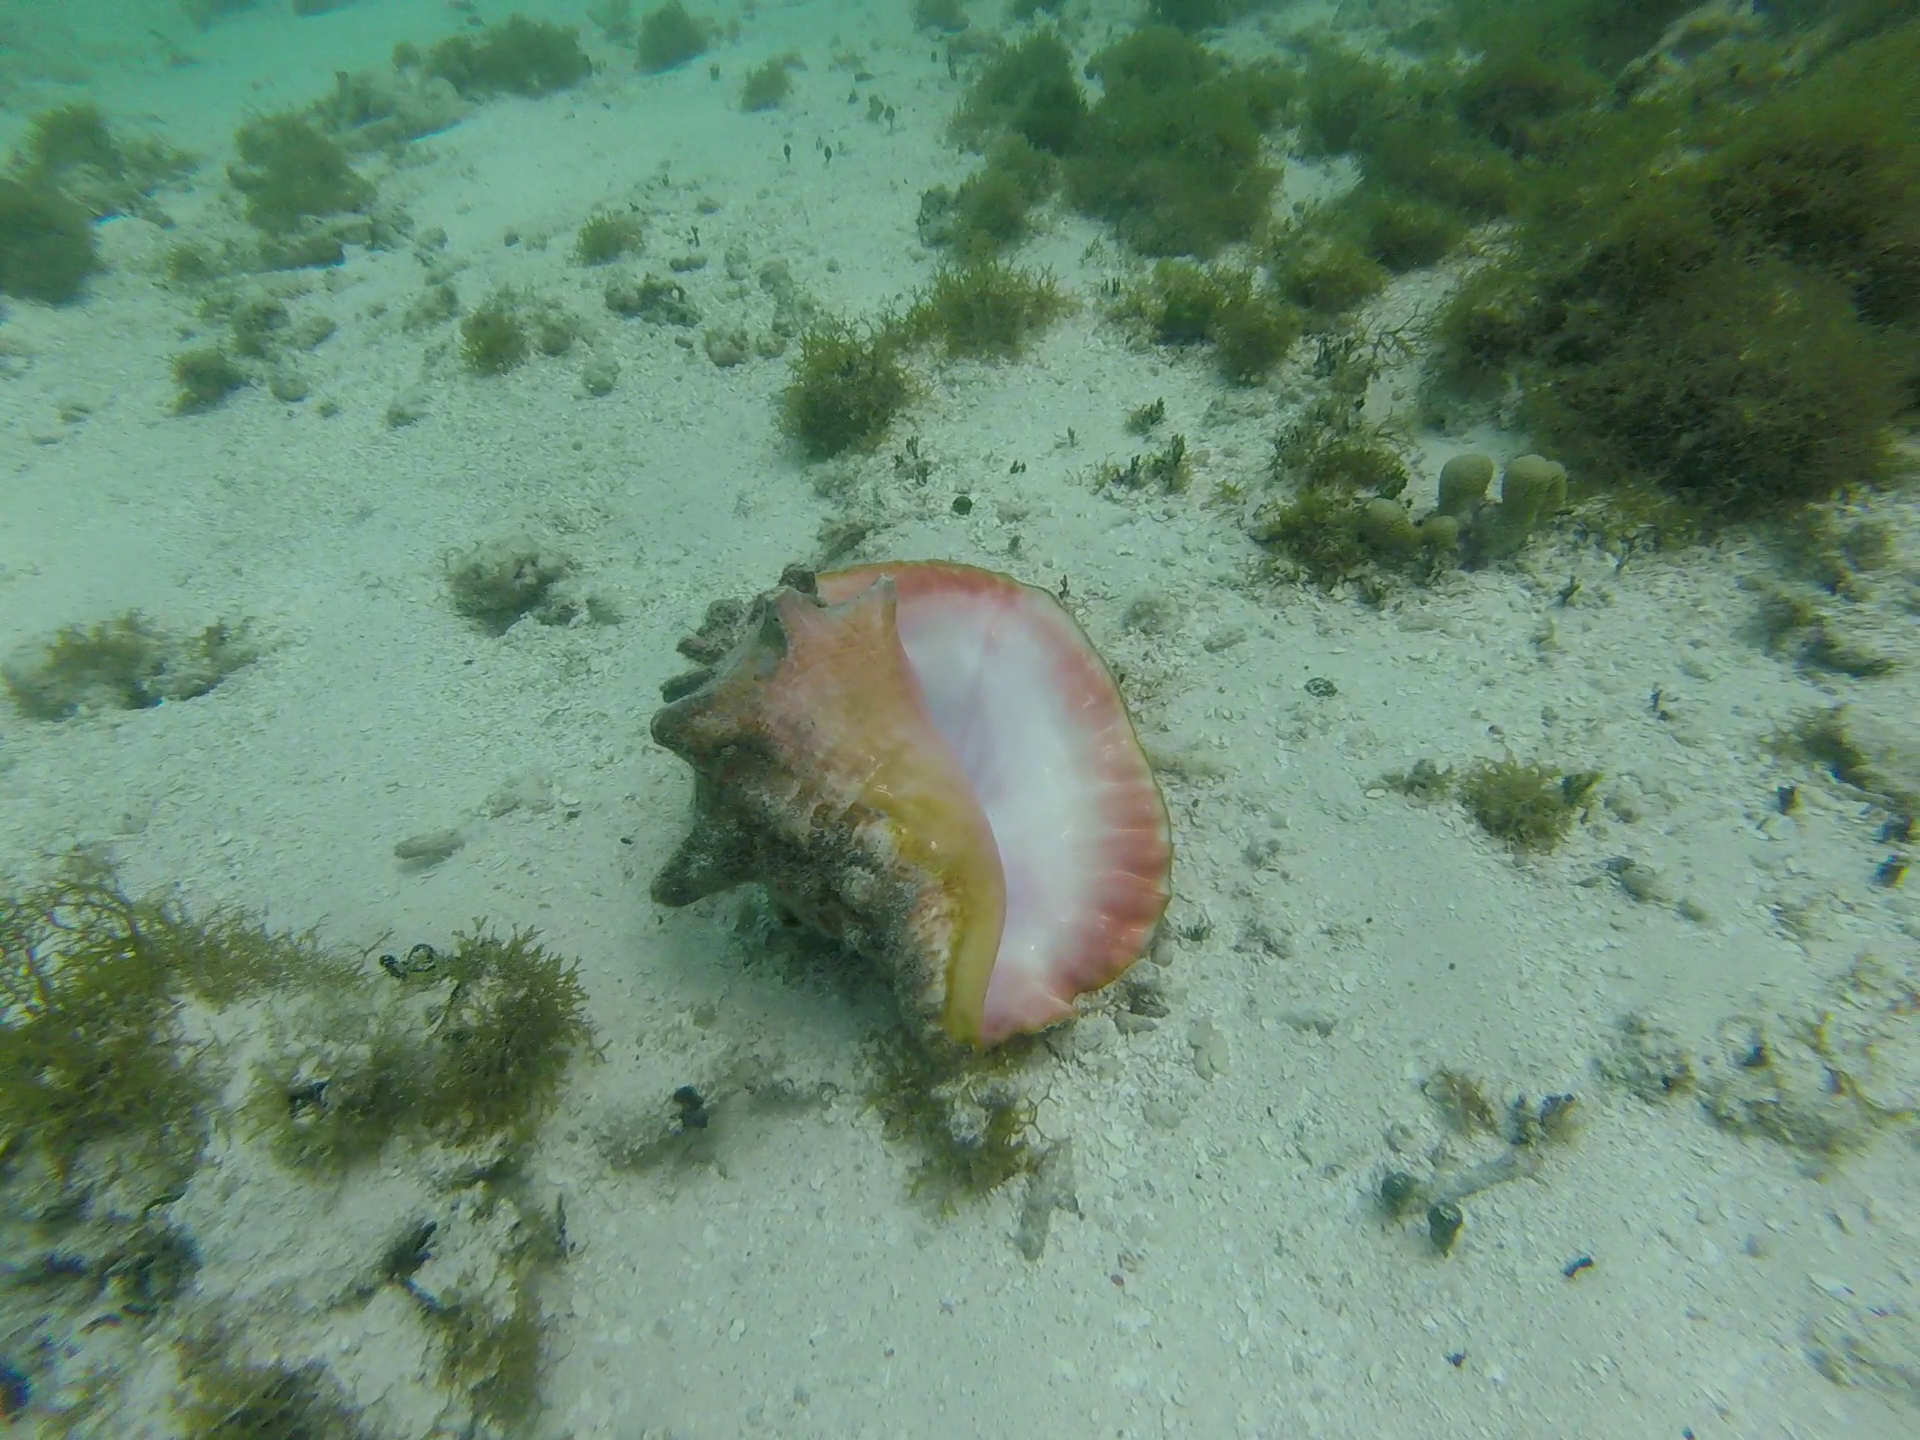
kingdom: Animalia
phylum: Mollusca
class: Gastropoda
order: Littorinimorpha
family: Strombidae
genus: Aliger
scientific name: Aliger gigas
